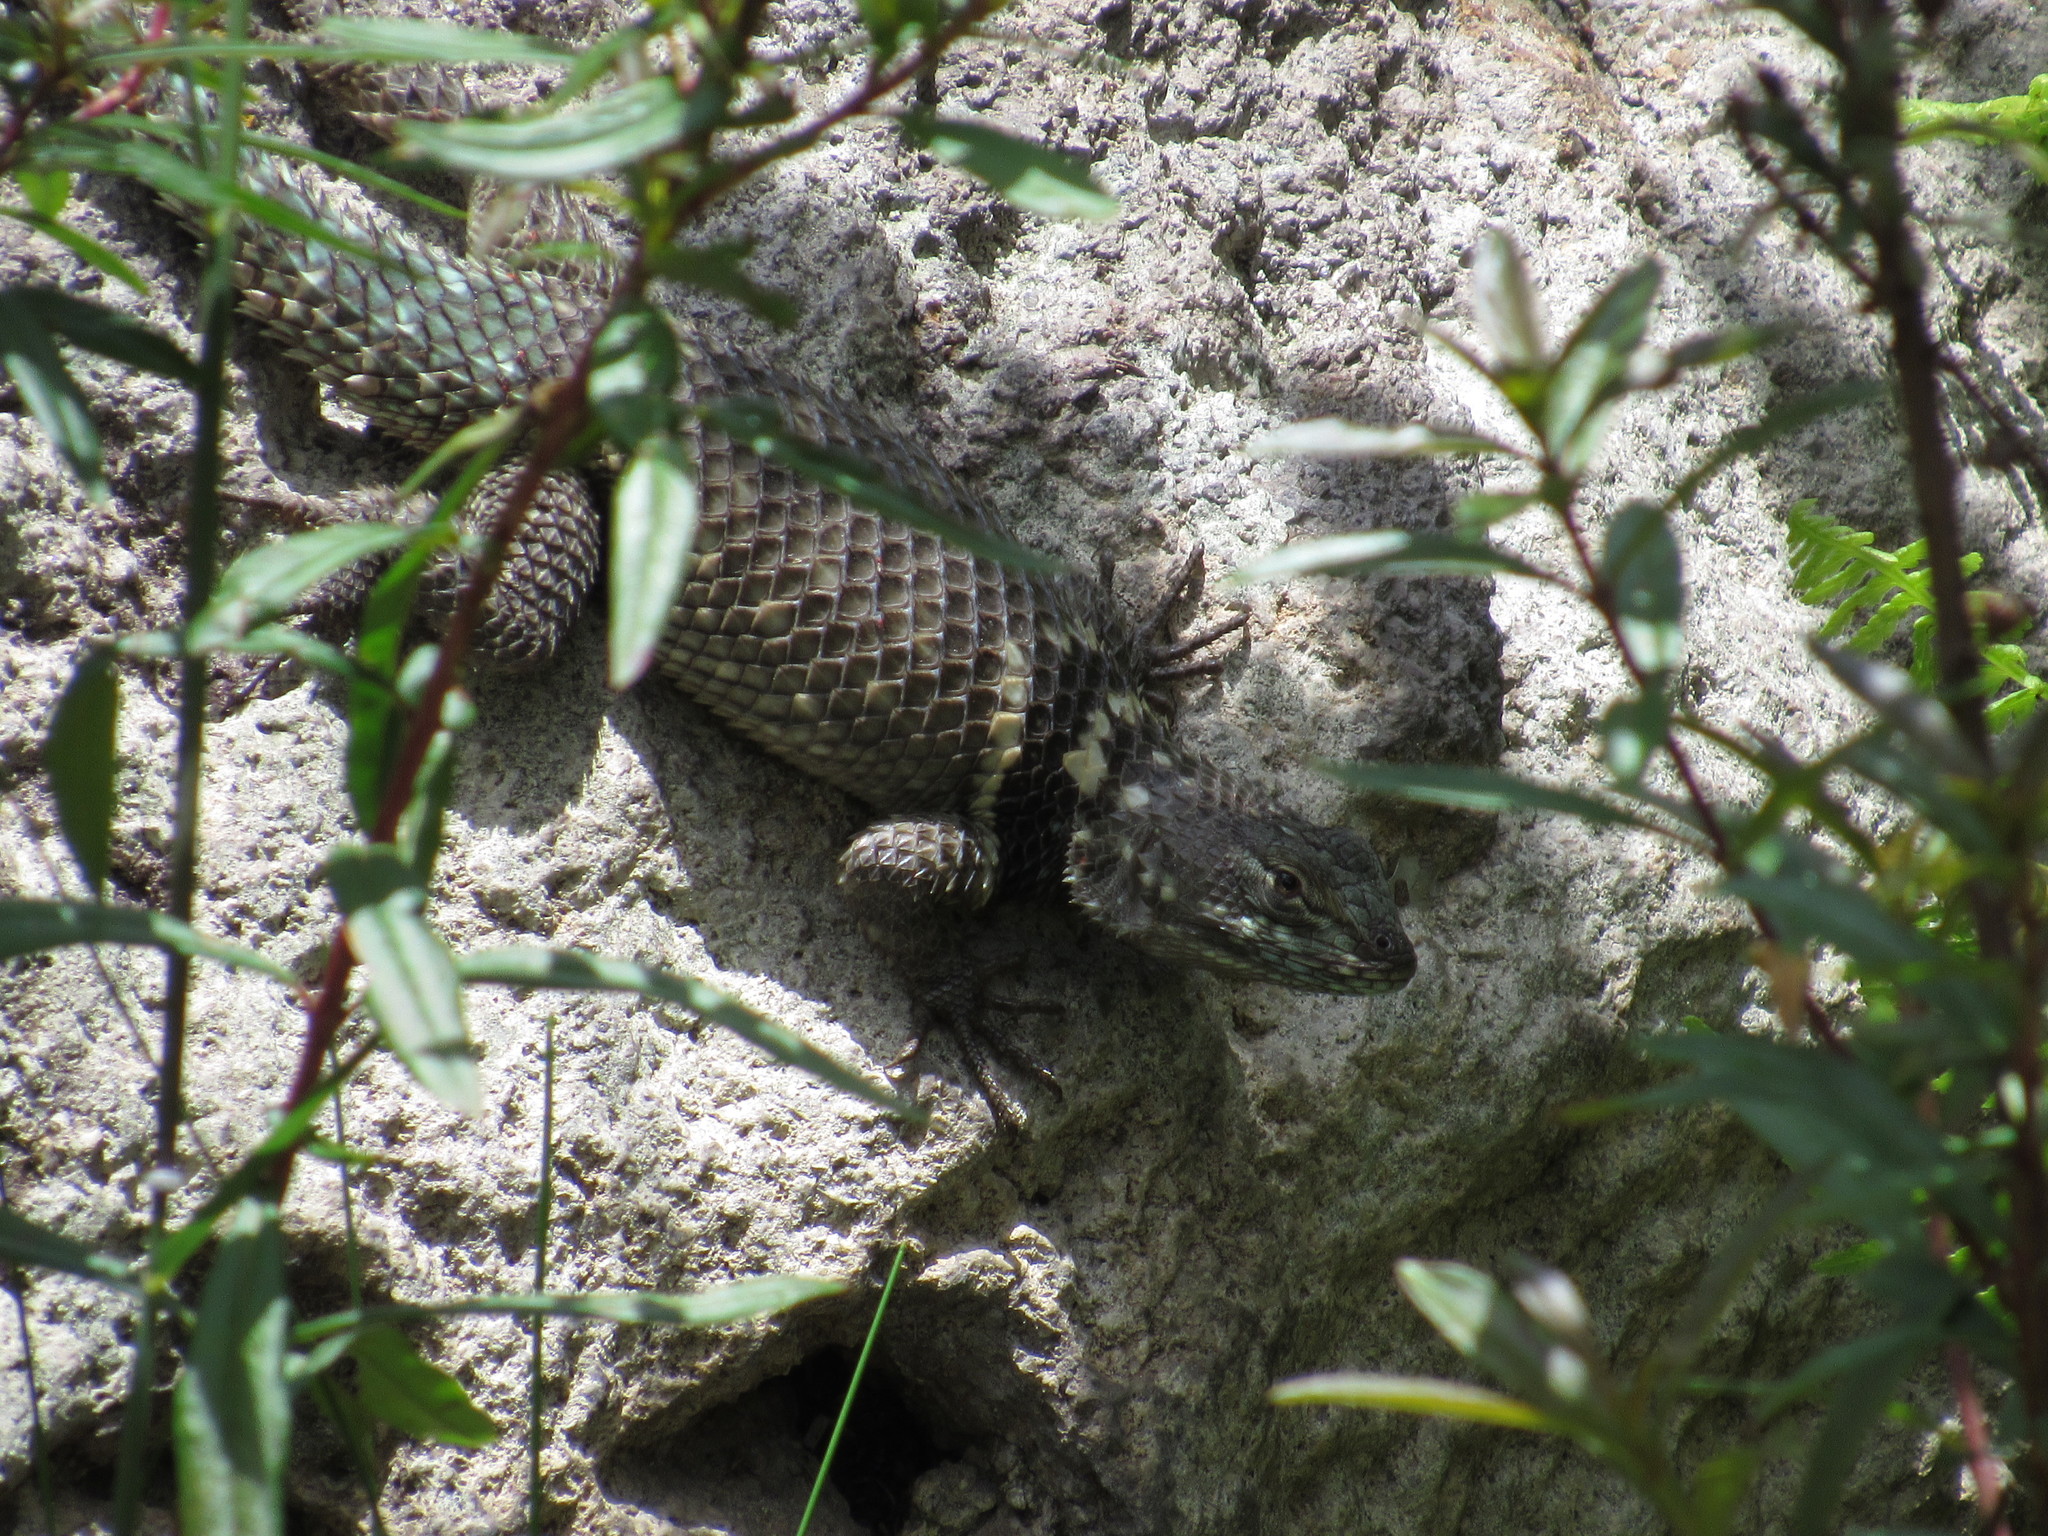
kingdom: Animalia
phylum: Chordata
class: Squamata
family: Phrynosomatidae
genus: Sceloporus
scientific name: Sceloporus torquatus
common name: Central plateau torquate lizard [melanogaster]
